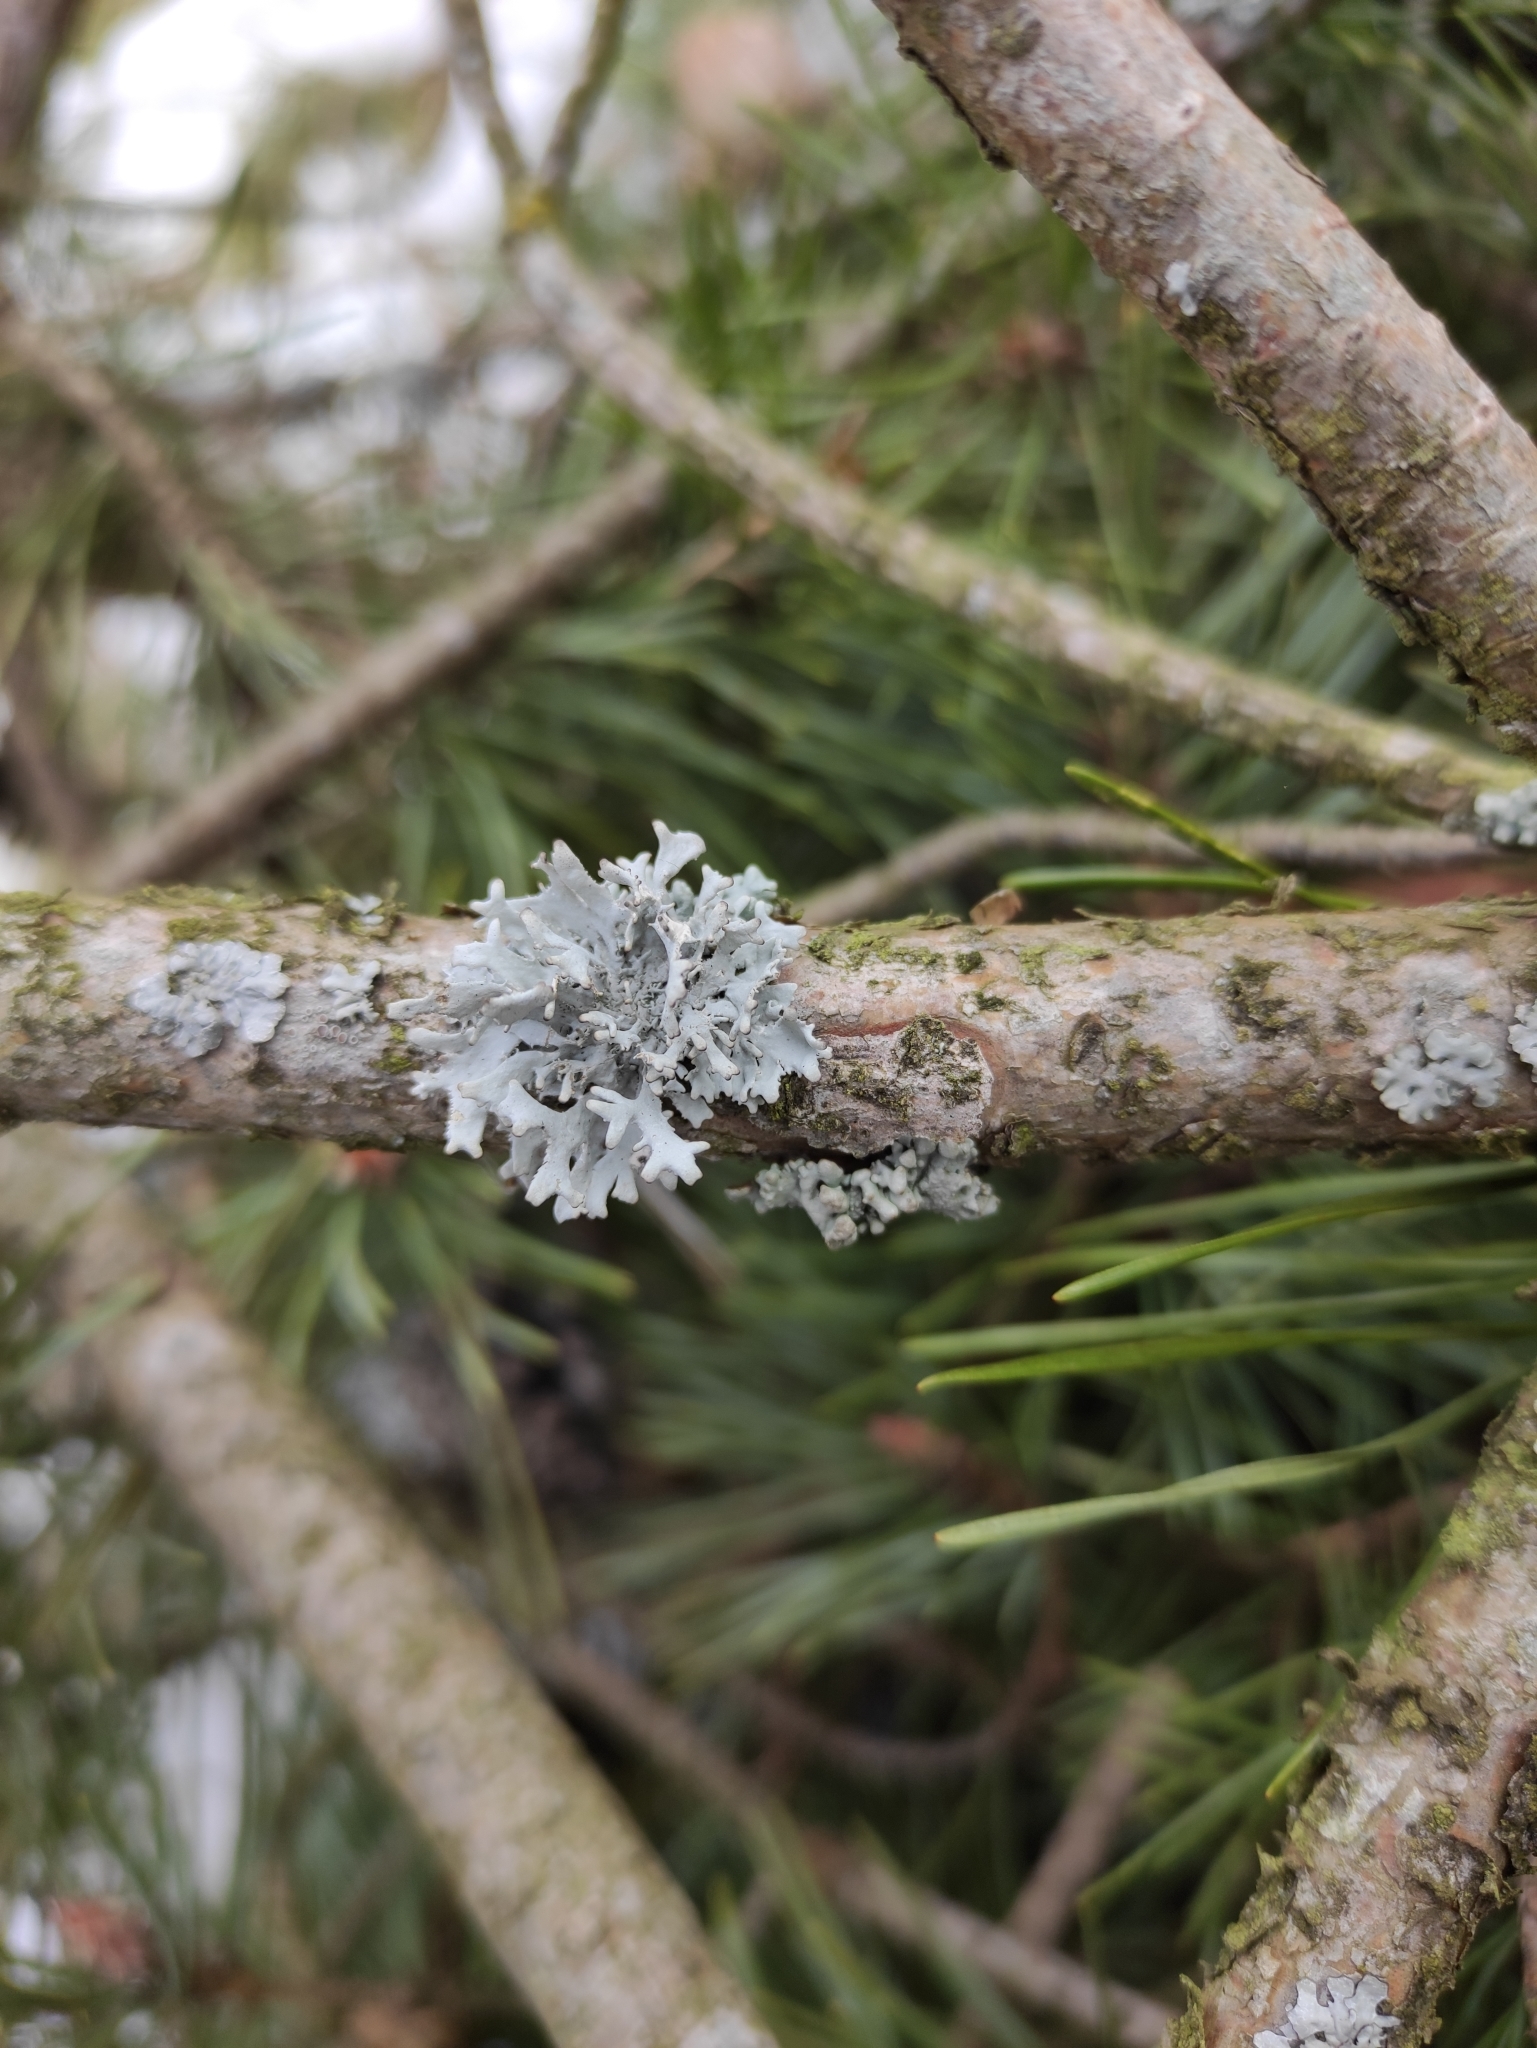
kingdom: Fungi
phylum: Ascomycota
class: Lecanoromycetes
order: Lecanorales
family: Parmeliaceae
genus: Pseudevernia
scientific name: Pseudevernia furfuracea
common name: Tree moss
